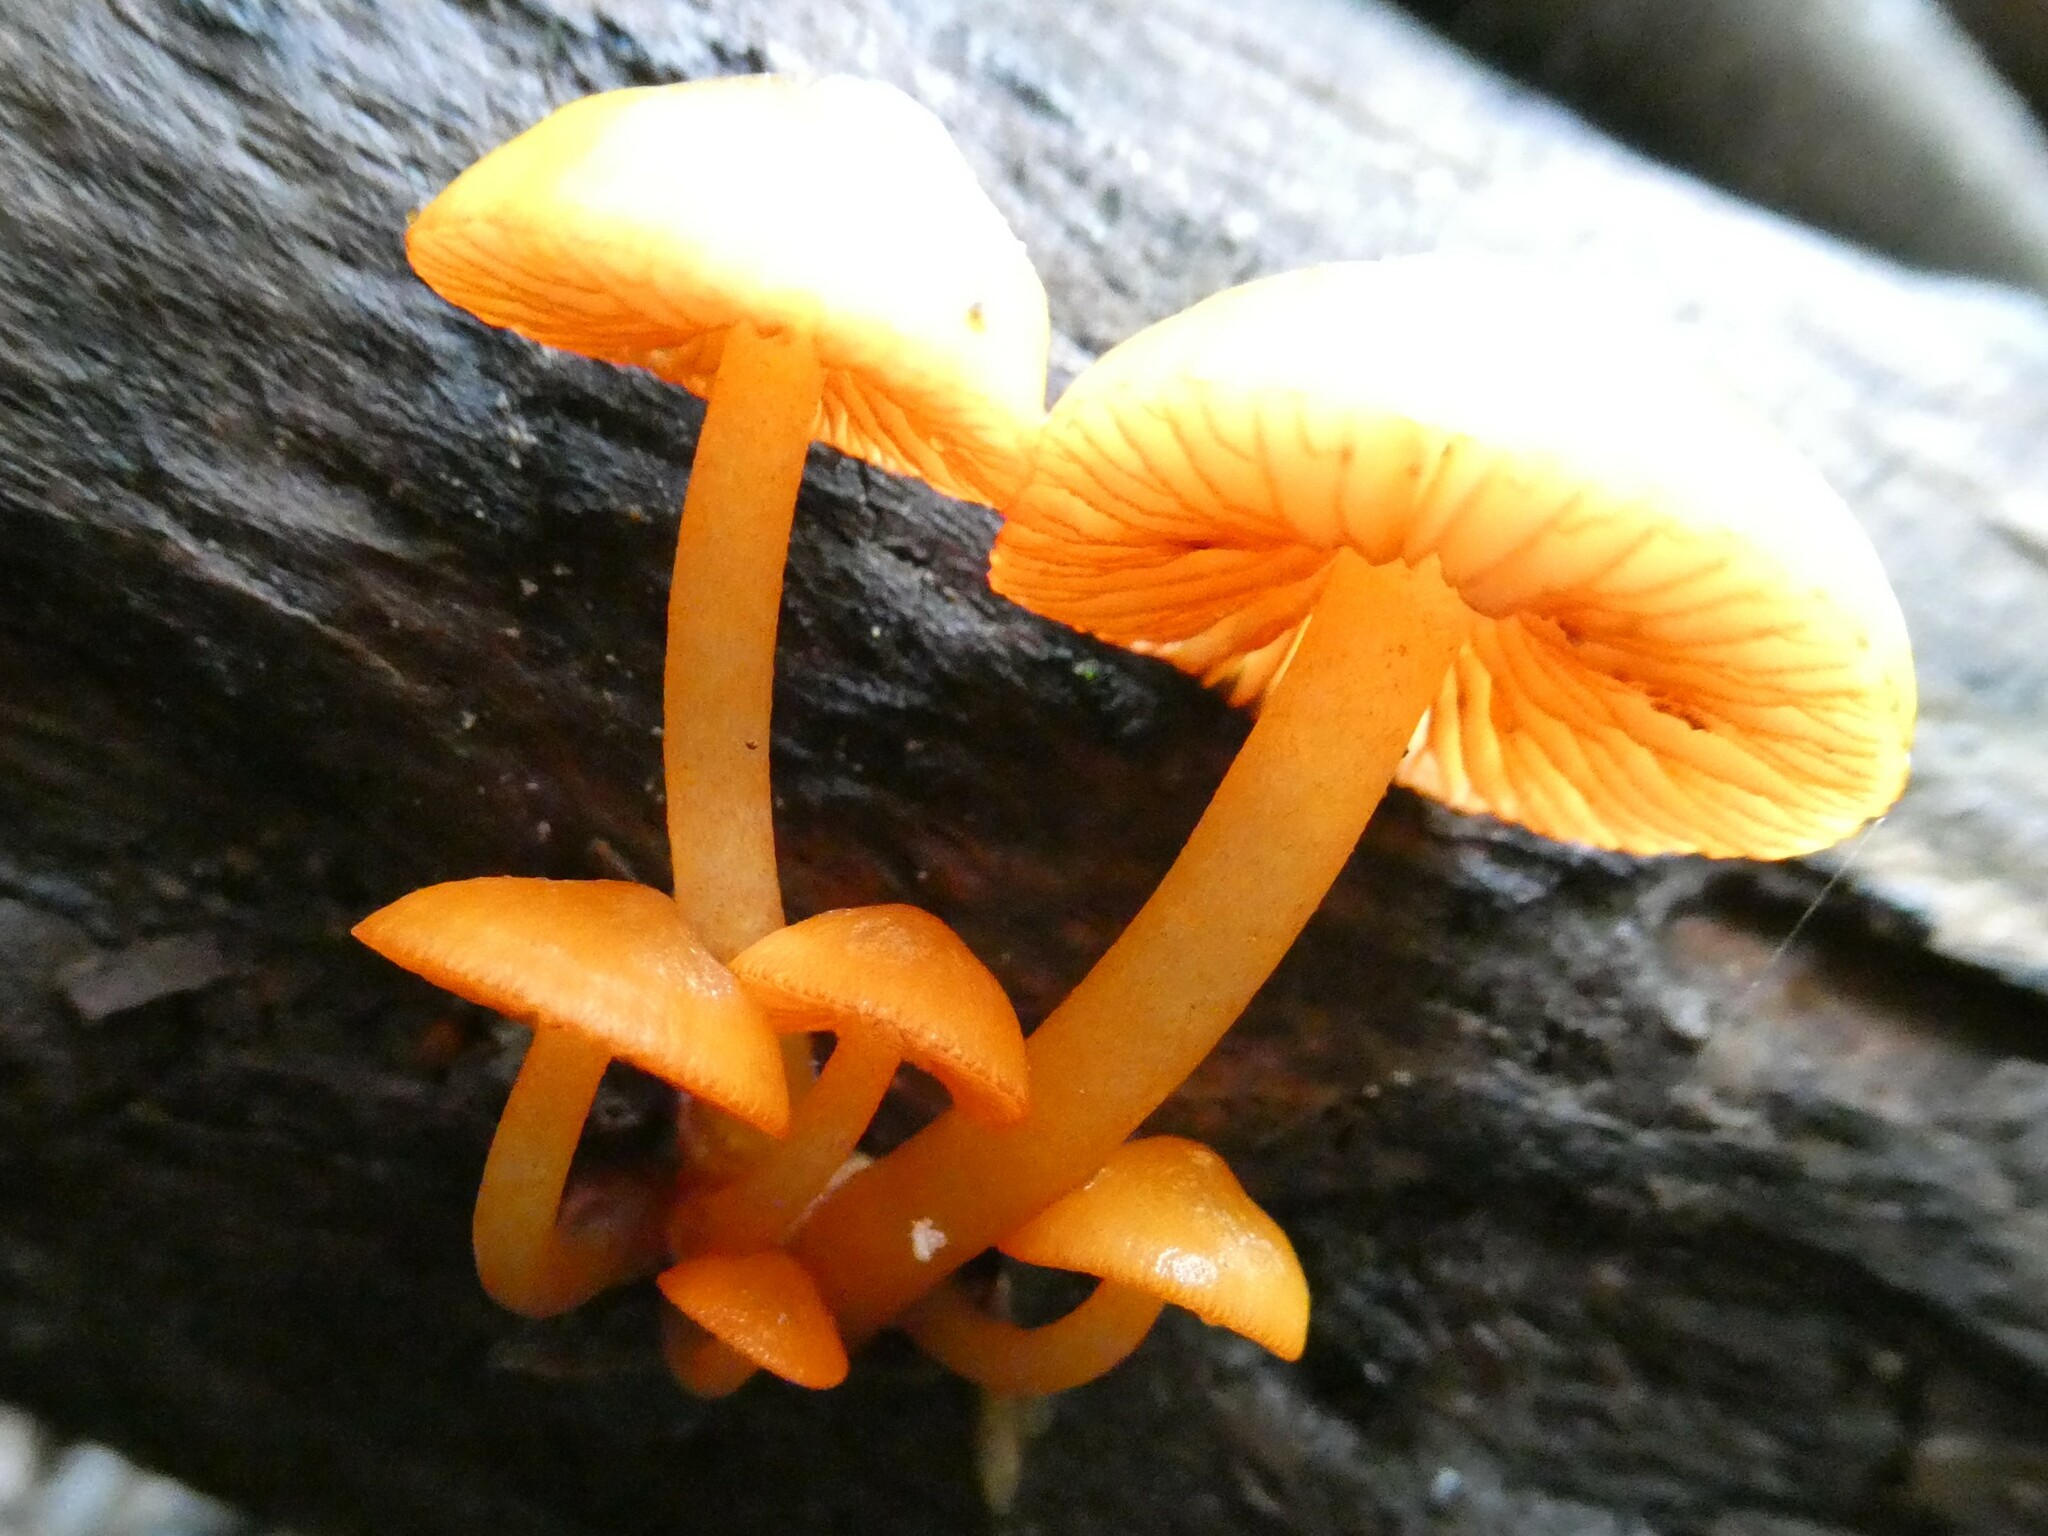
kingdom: Fungi
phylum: Basidiomycota
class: Agaricomycetes
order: Agaricales
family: Mycenaceae
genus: Mycena
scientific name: Mycena leaiana
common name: Orange mycena
